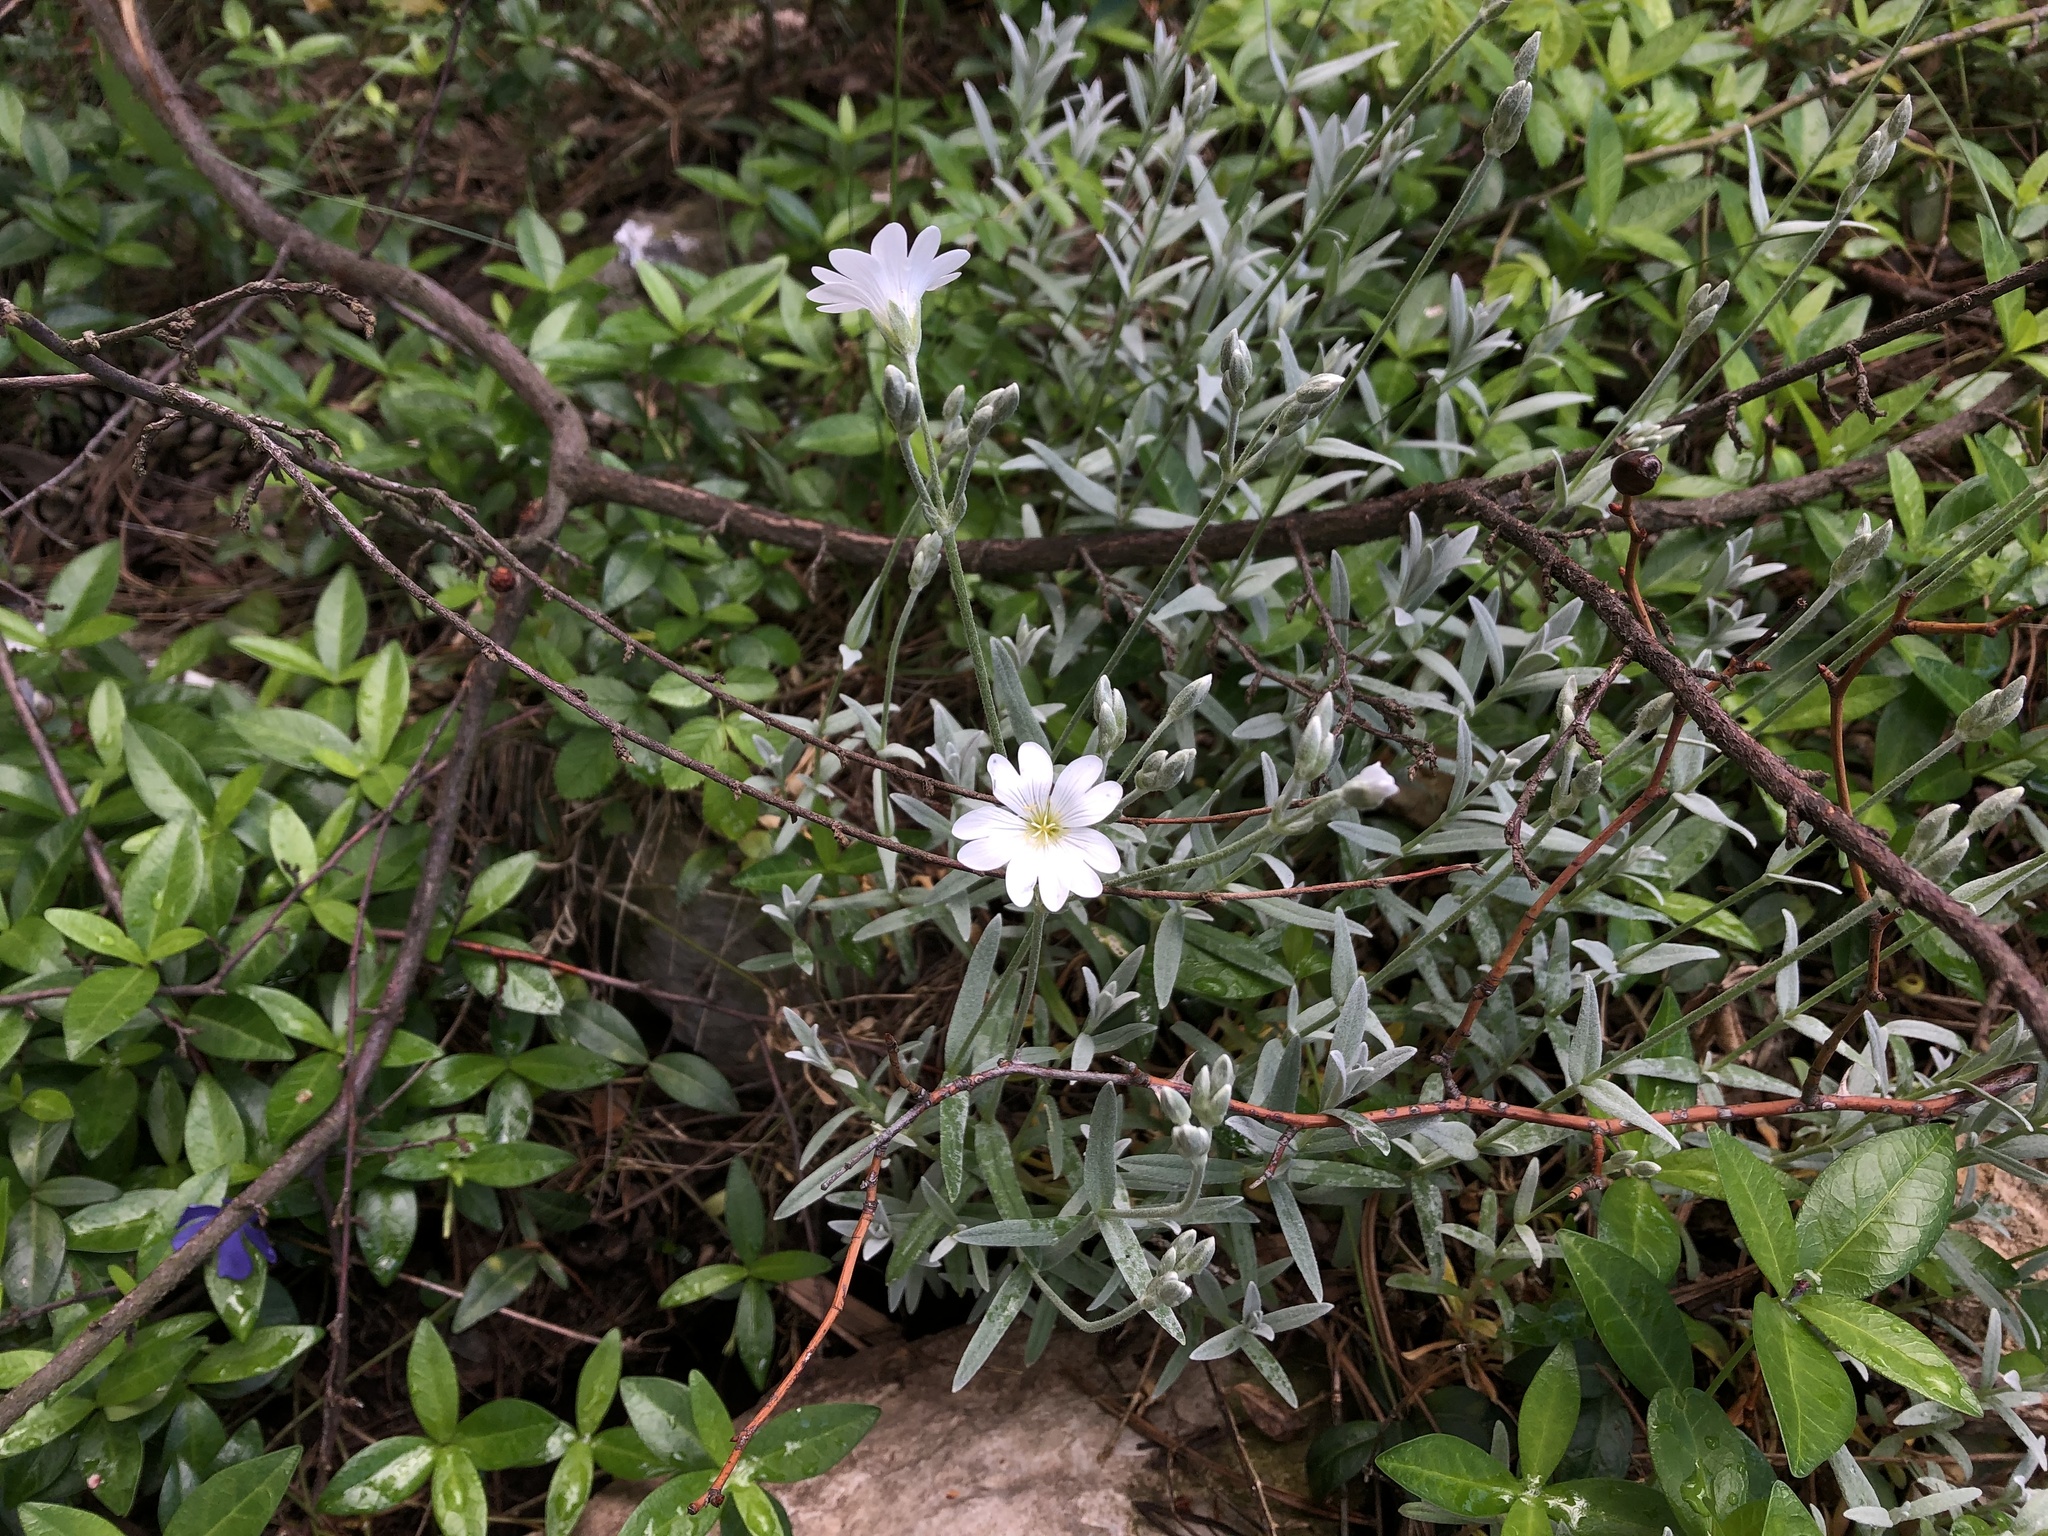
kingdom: Plantae
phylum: Tracheophyta
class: Magnoliopsida
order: Caryophyllales
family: Caryophyllaceae
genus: Cerastium
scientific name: Cerastium tomentosum
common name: Snow-in-summer
